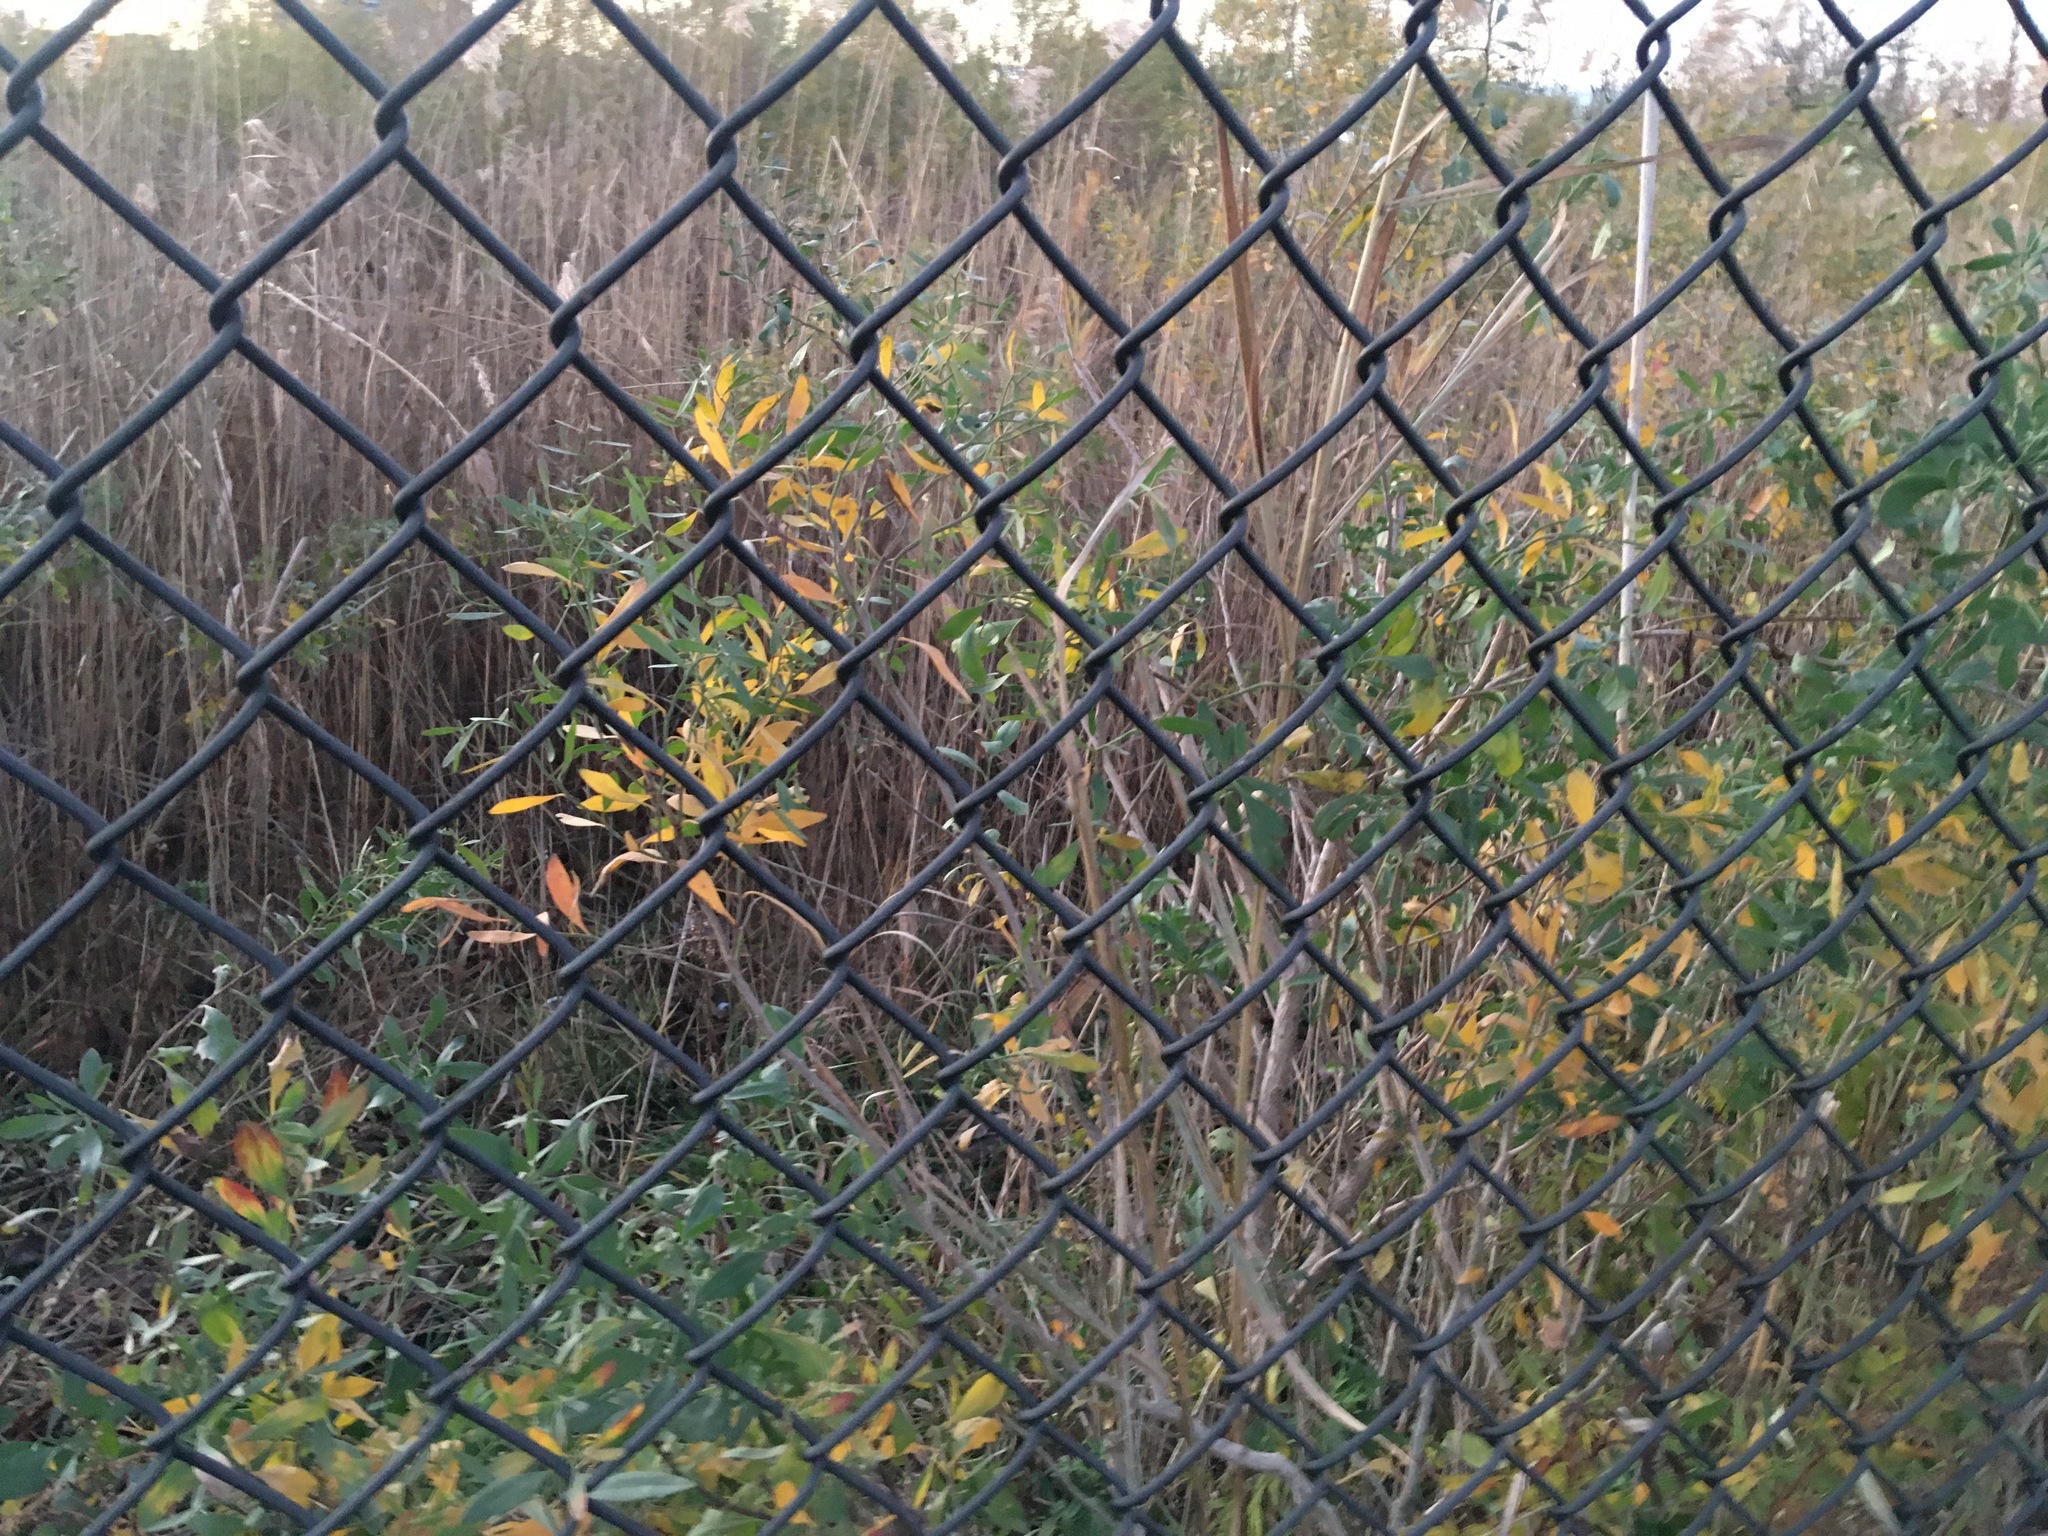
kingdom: Plantae
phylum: Tracheophyta
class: Magnoliopsida
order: Asterales
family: Asteraceae
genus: Baccharis
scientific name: Baccharis halimifolia
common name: Eastern baccharis
